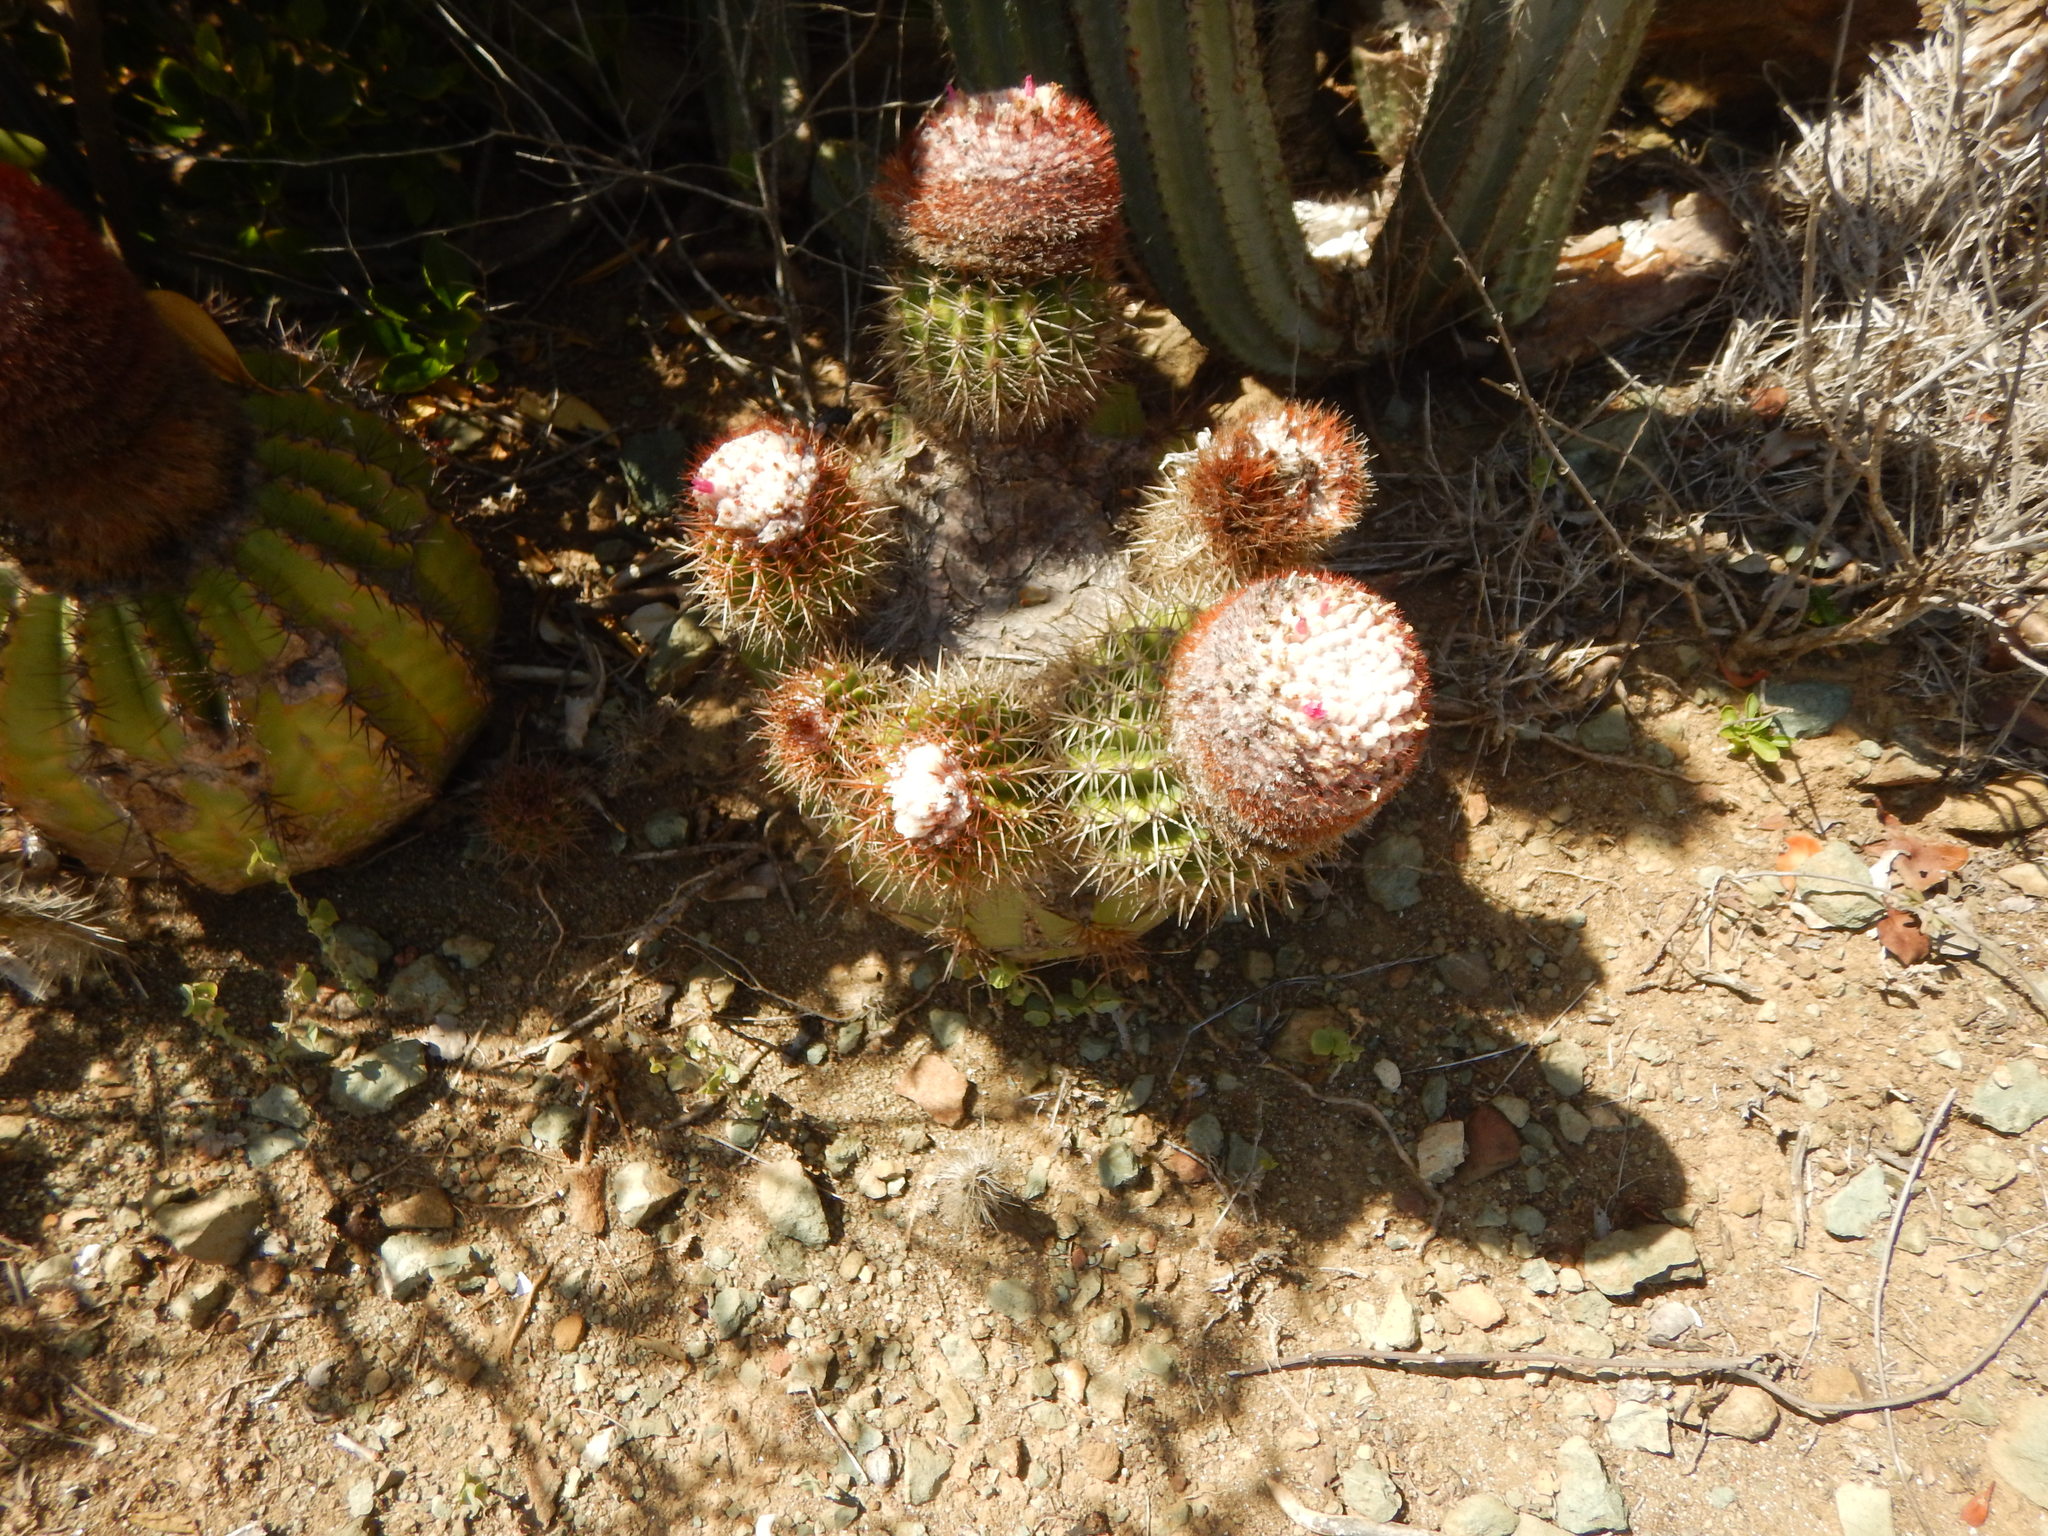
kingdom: Plantae
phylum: Tracheophyta
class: Magnoliopsida
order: Caryophyllales
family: Cactaceae
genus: Melocactus
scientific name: Melocactus intortus
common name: Barrel cactus
